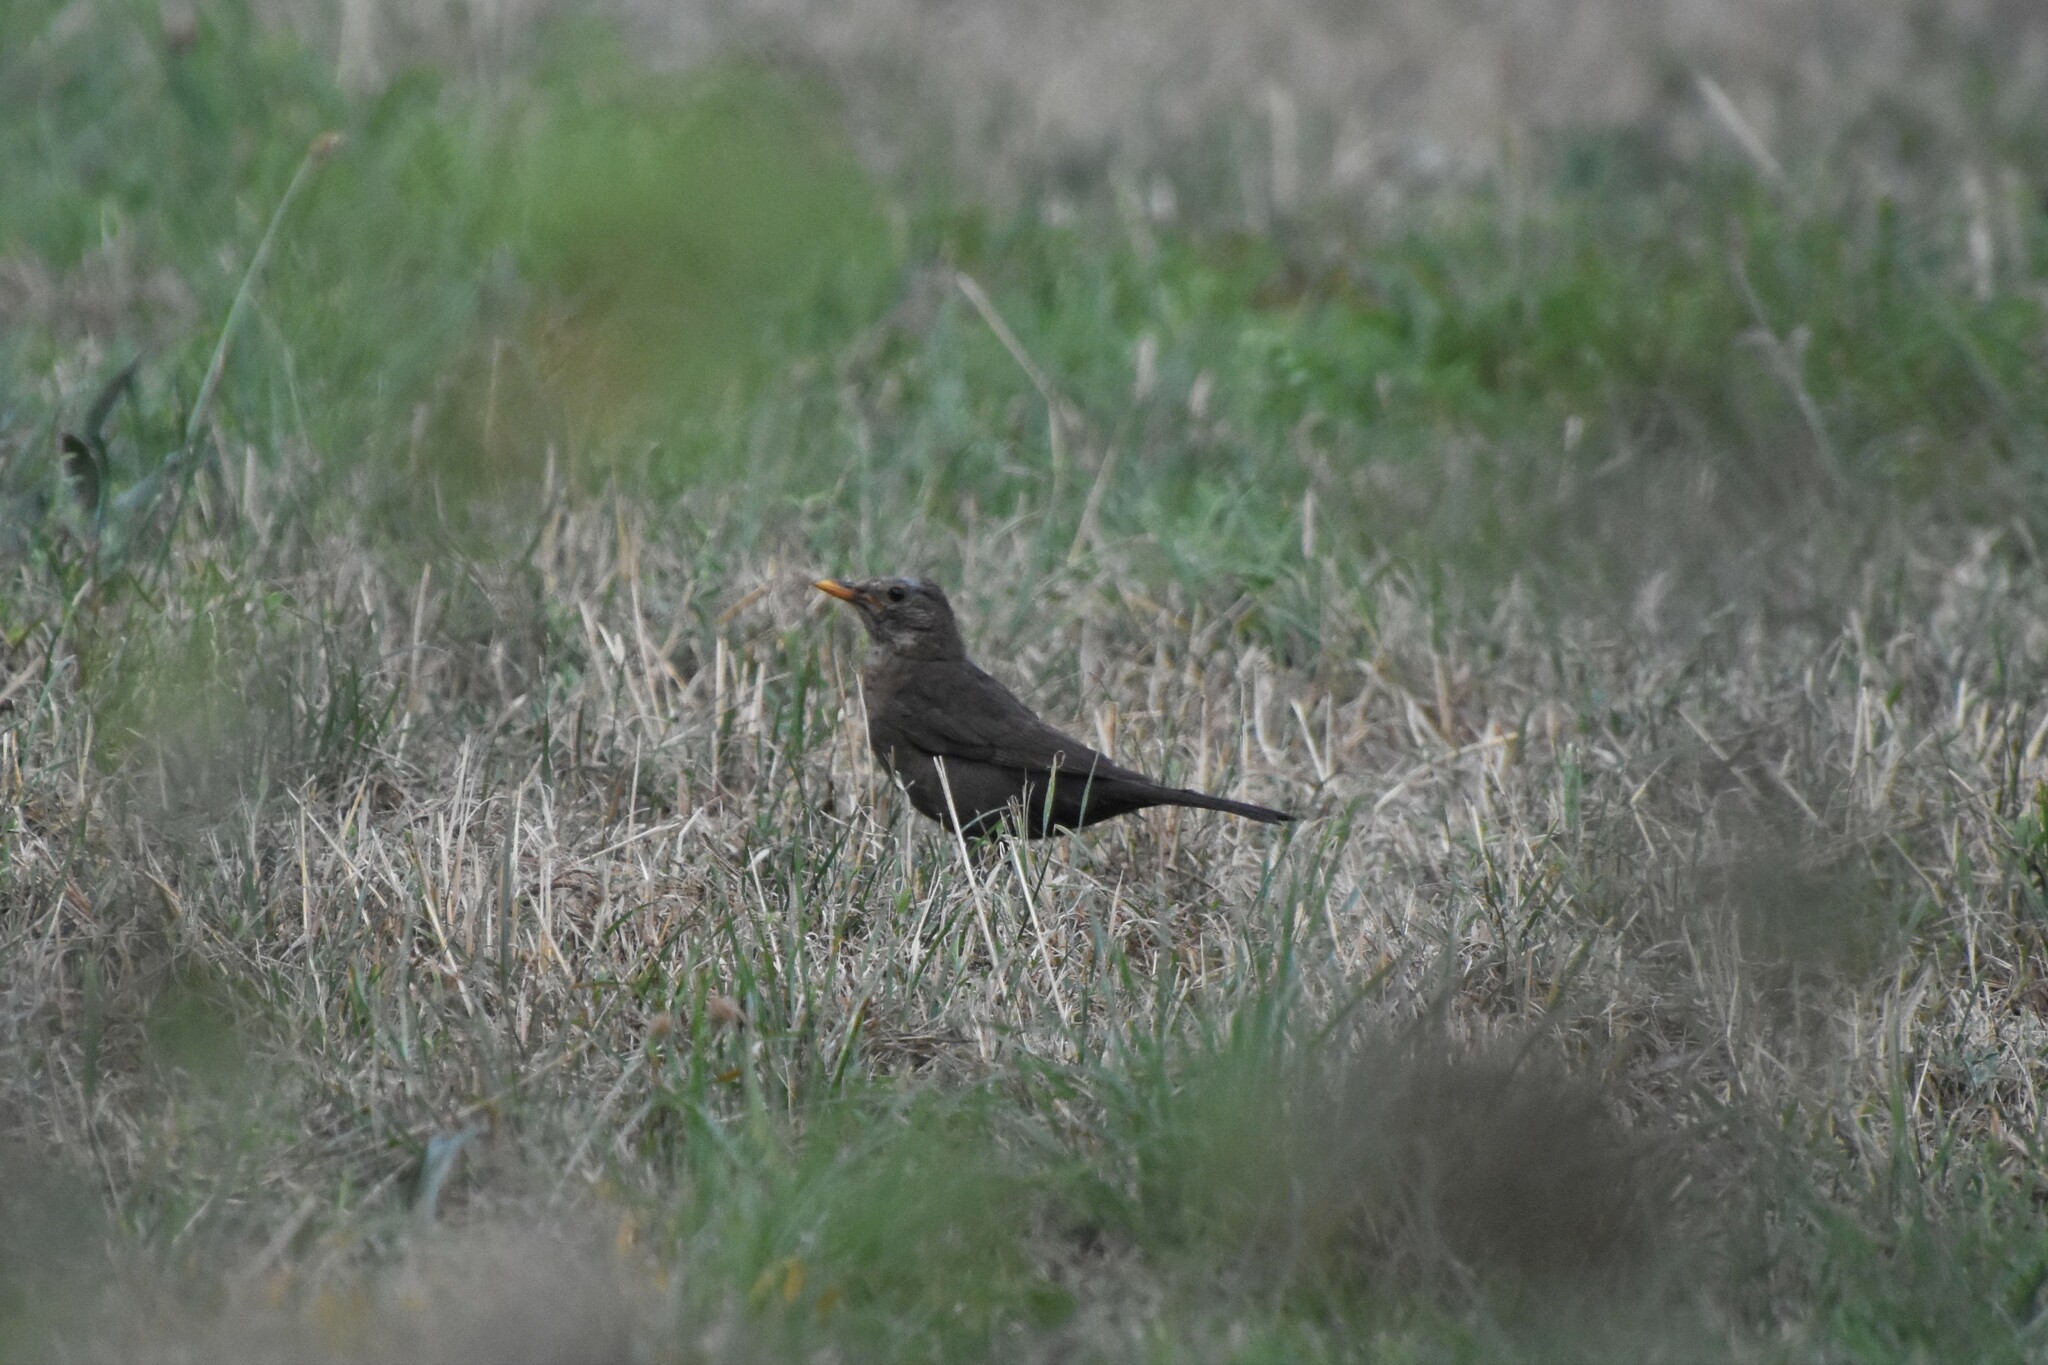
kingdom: Animalia
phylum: Chordata
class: Aves
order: Passeriformes
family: Turdidae
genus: Turdus
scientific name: Turdus merula
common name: Common blackbird
